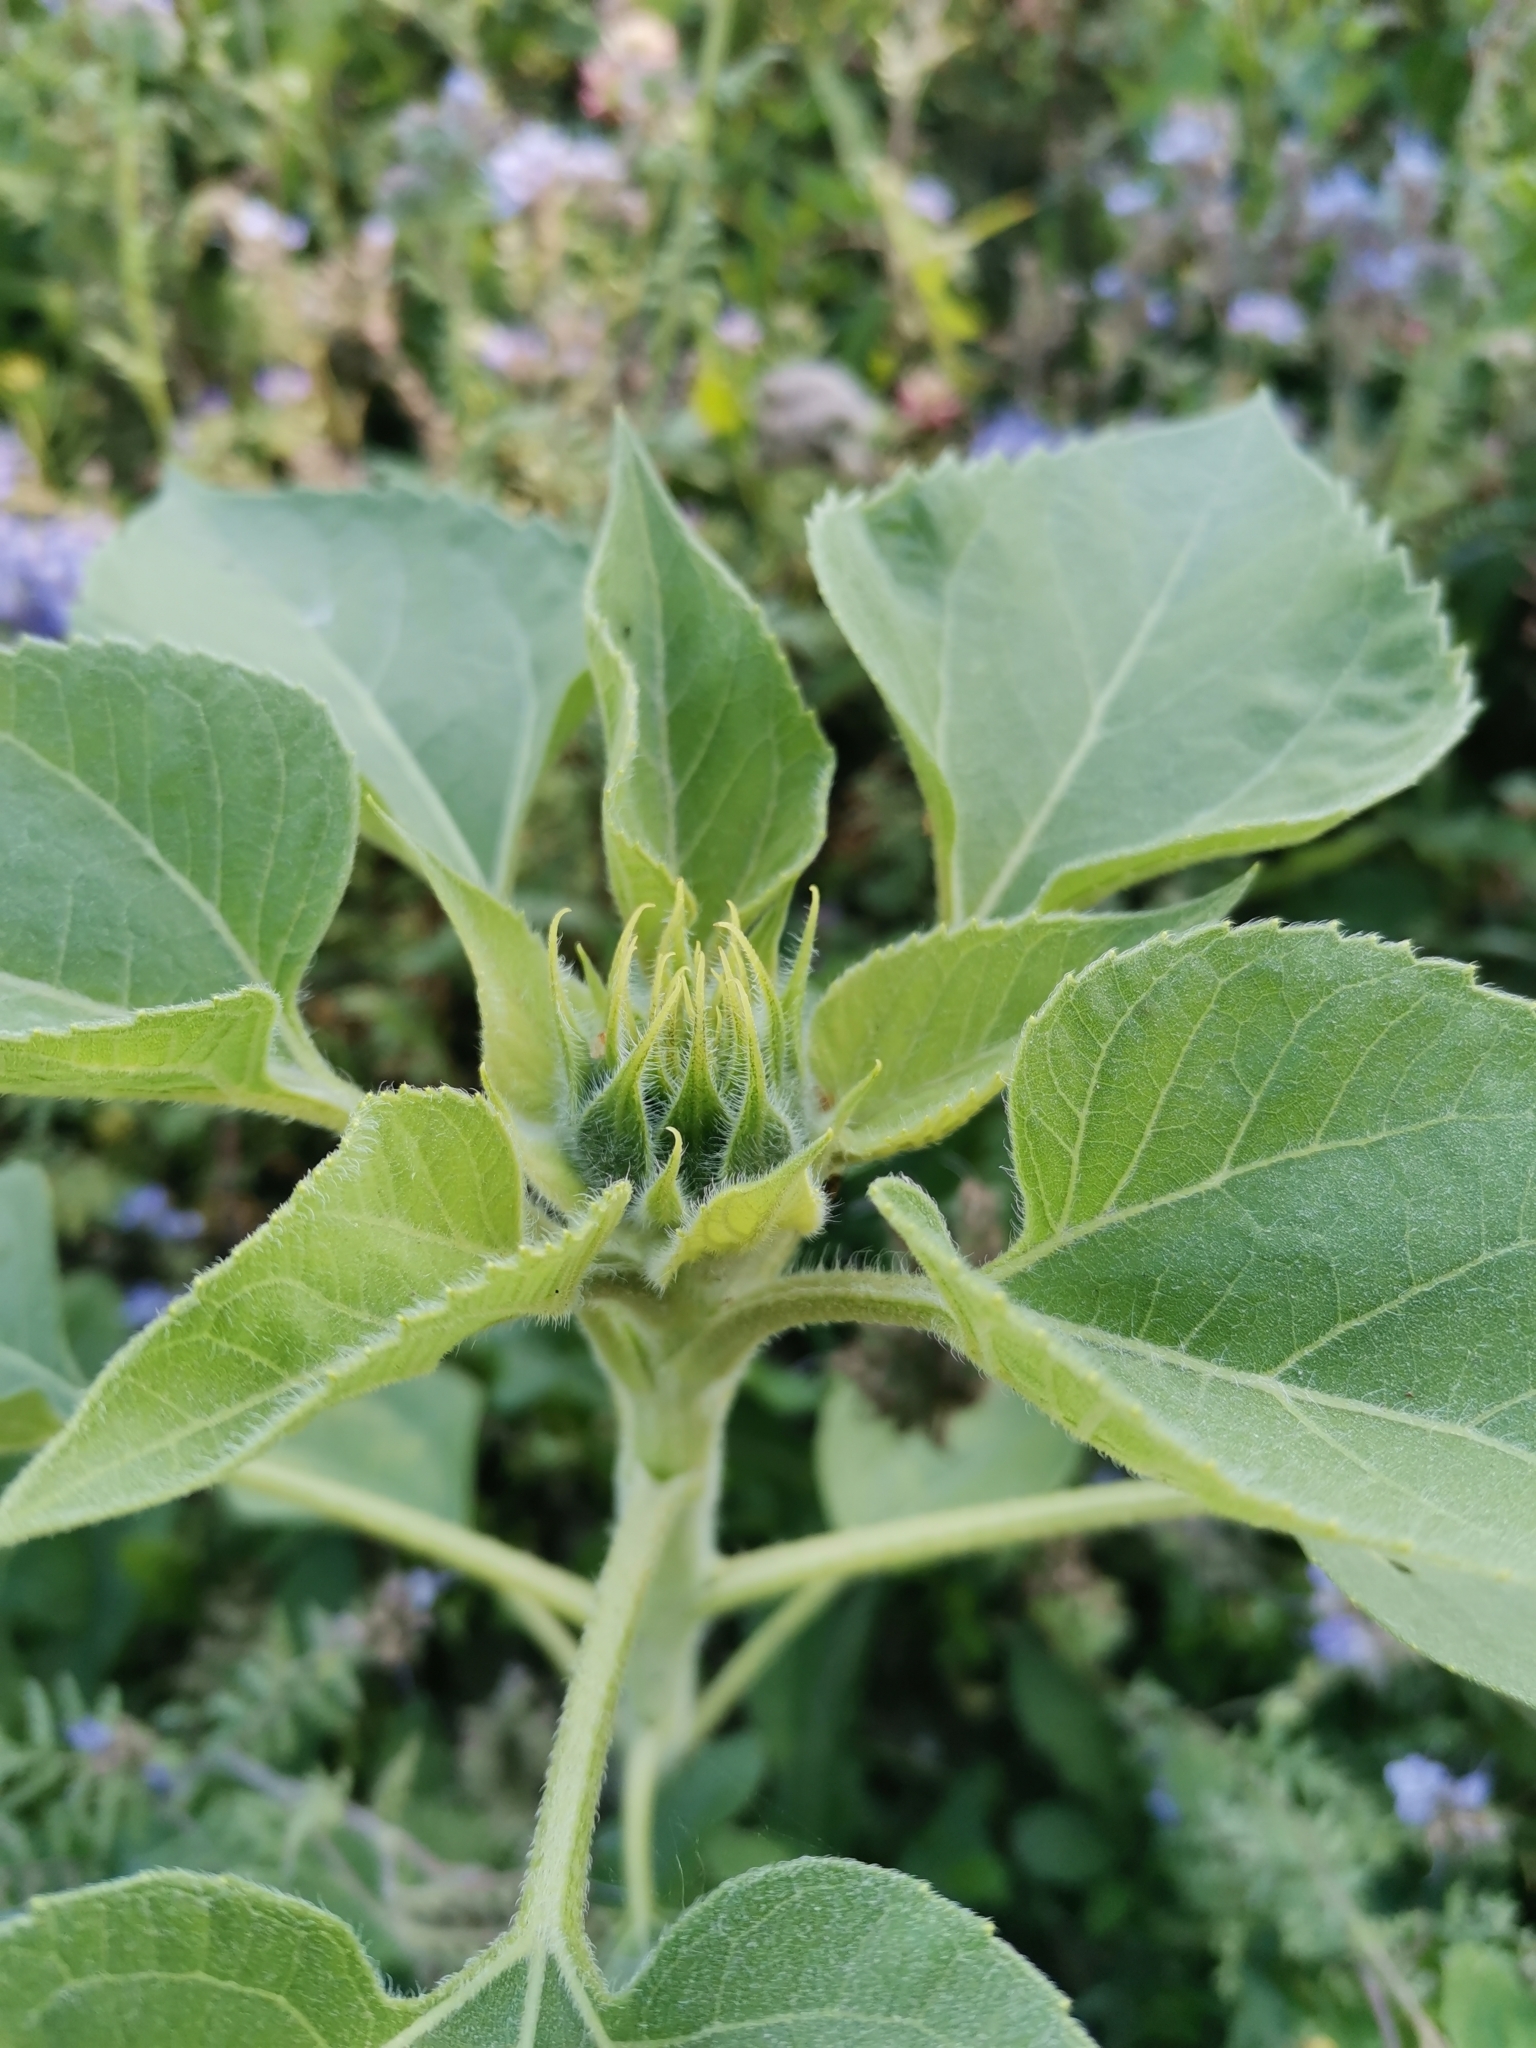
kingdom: Plantae
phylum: Tracheophyta
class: Magnoliopsida
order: Asterales
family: Asteraceae
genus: Helianthus
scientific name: Helianthus annuus
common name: Sunflower
